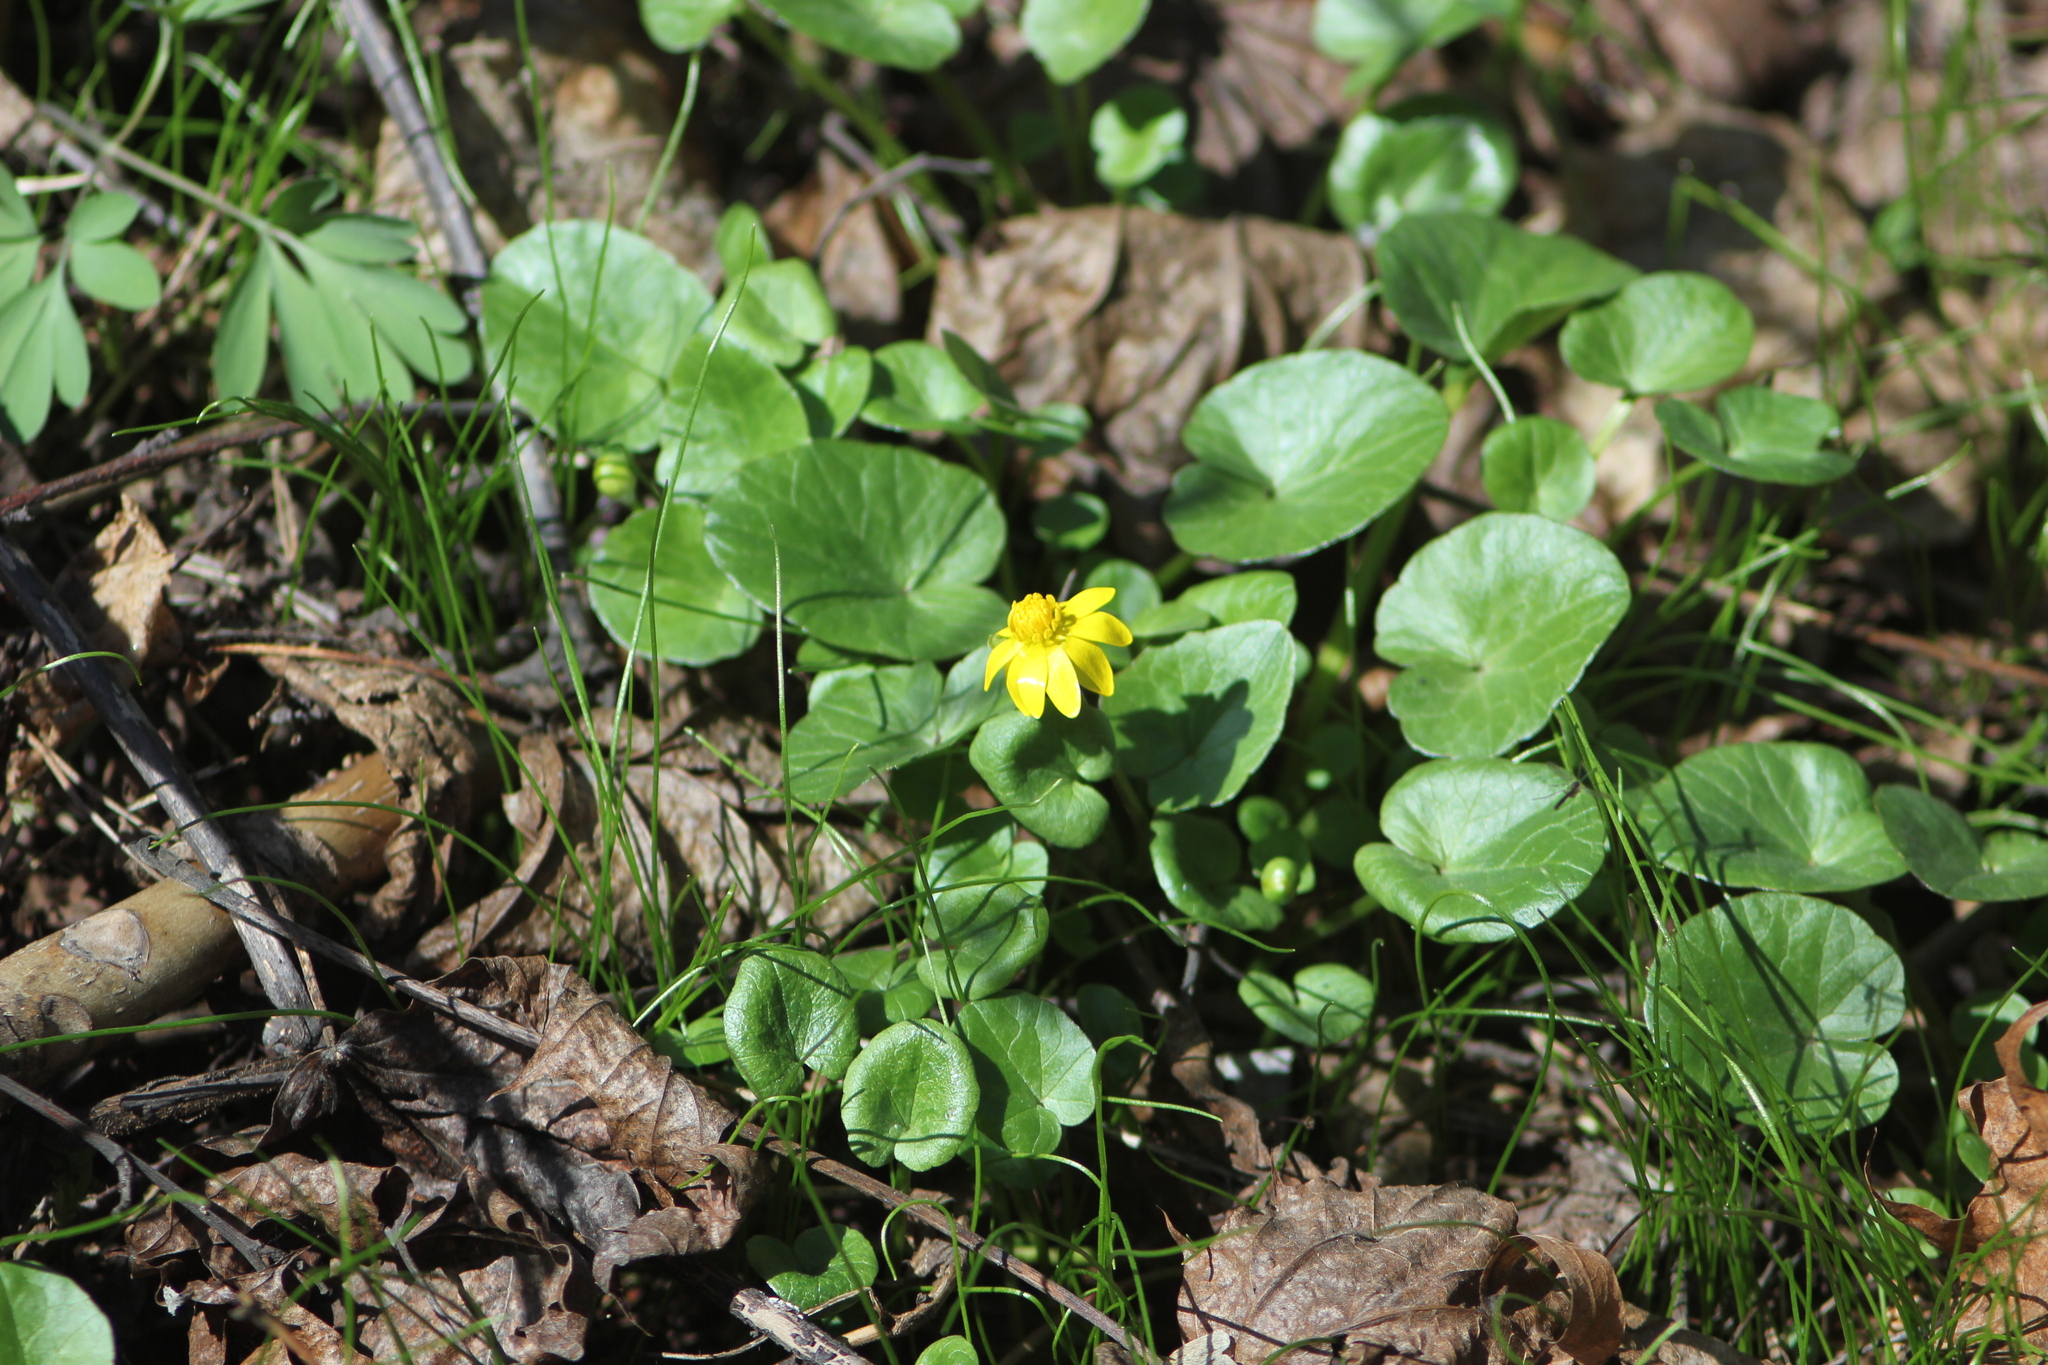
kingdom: Plantae
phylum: Tracheophyta
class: Magnoliopsida
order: Ranunculales
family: Ranunculaceae
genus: Ficaria
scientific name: Ficaria verna
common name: Lesser celandine
